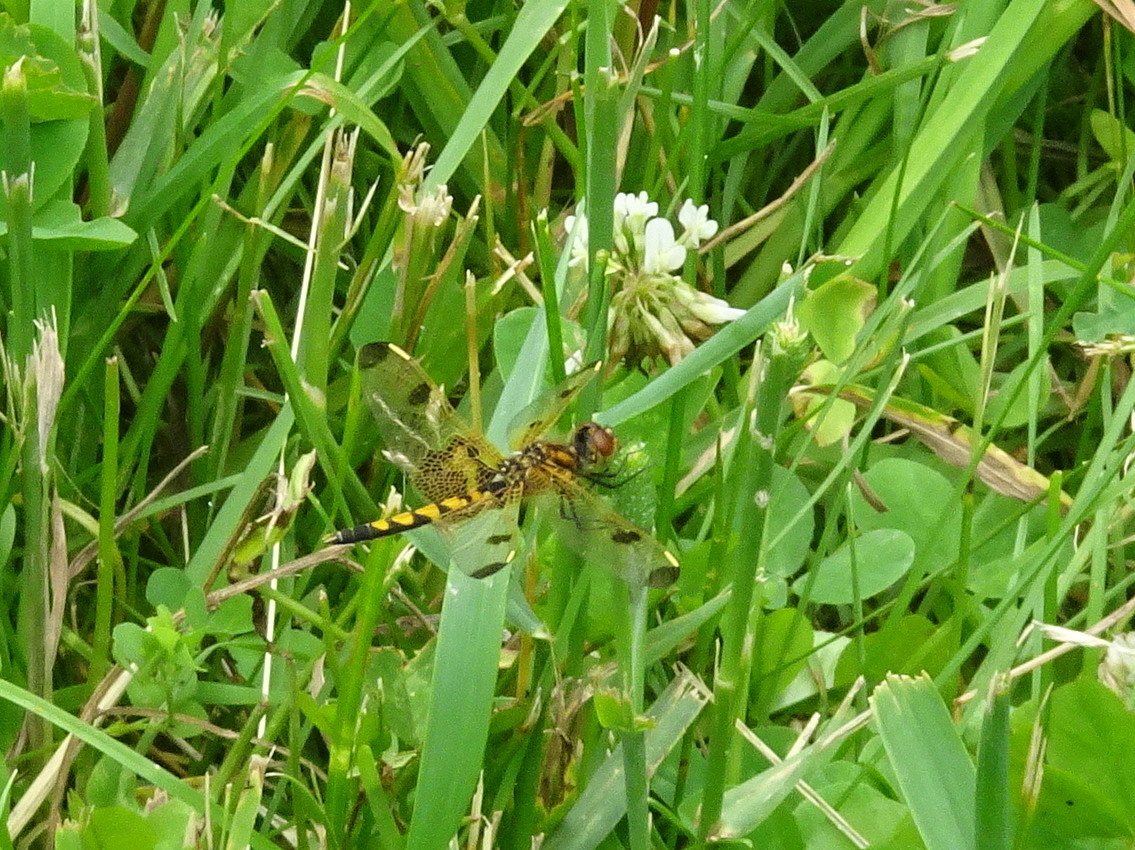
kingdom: Animalia
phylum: Arthropoda
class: Insecta
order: Odonata
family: Libellulidae
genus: Celithemis
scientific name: Celithemis elisa
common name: Calico pennant
